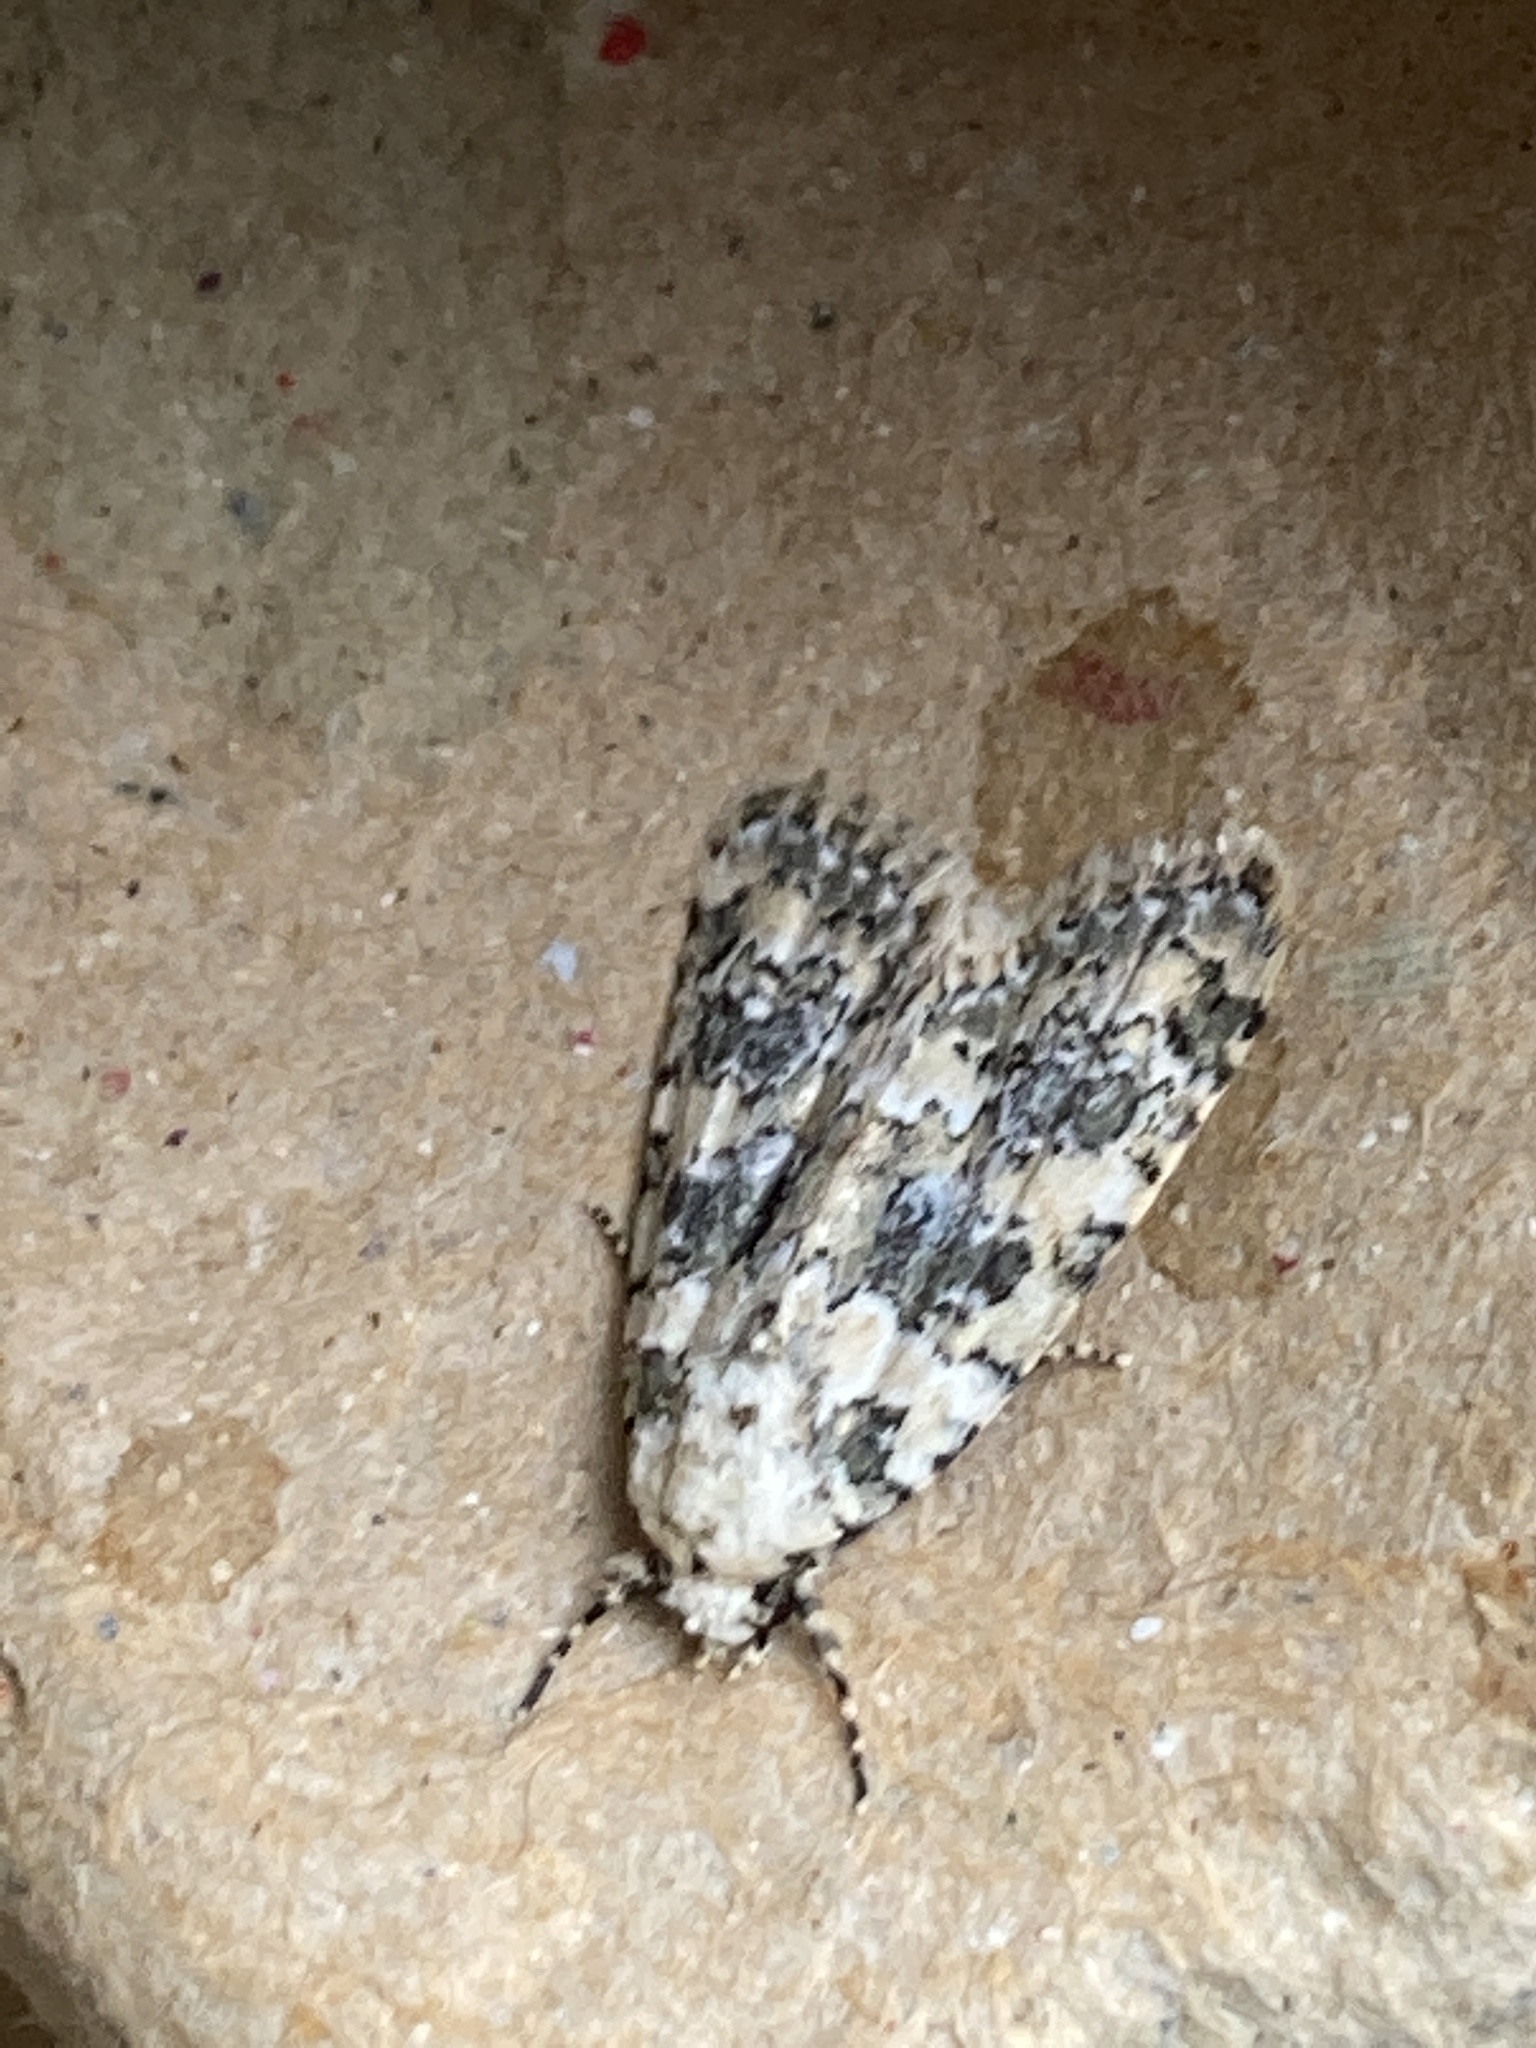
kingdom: Animalia
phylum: Arthropoda
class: Insecta
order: Lepidoptera
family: Noctuidae
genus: Bryophila
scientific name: Bryophila domestica
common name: Marbled beauty
